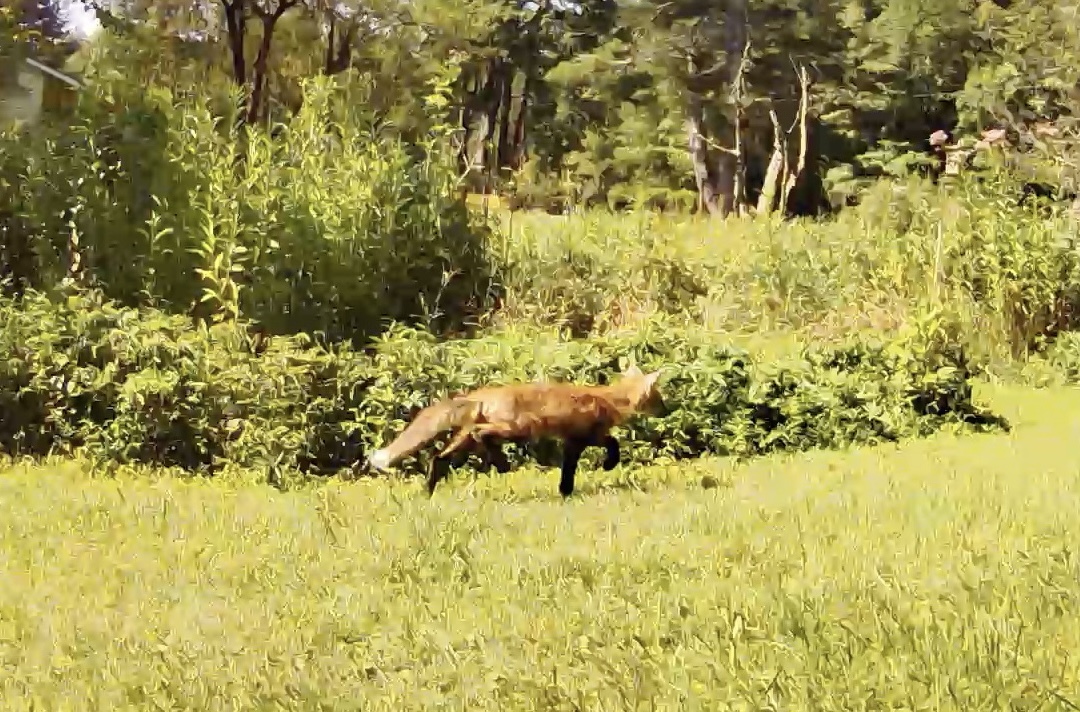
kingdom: Animalia
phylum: Chordata
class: Mammalia
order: Carnivora
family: Canidae
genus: Vulpes
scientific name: Vulpes vulpes
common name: Red fox
